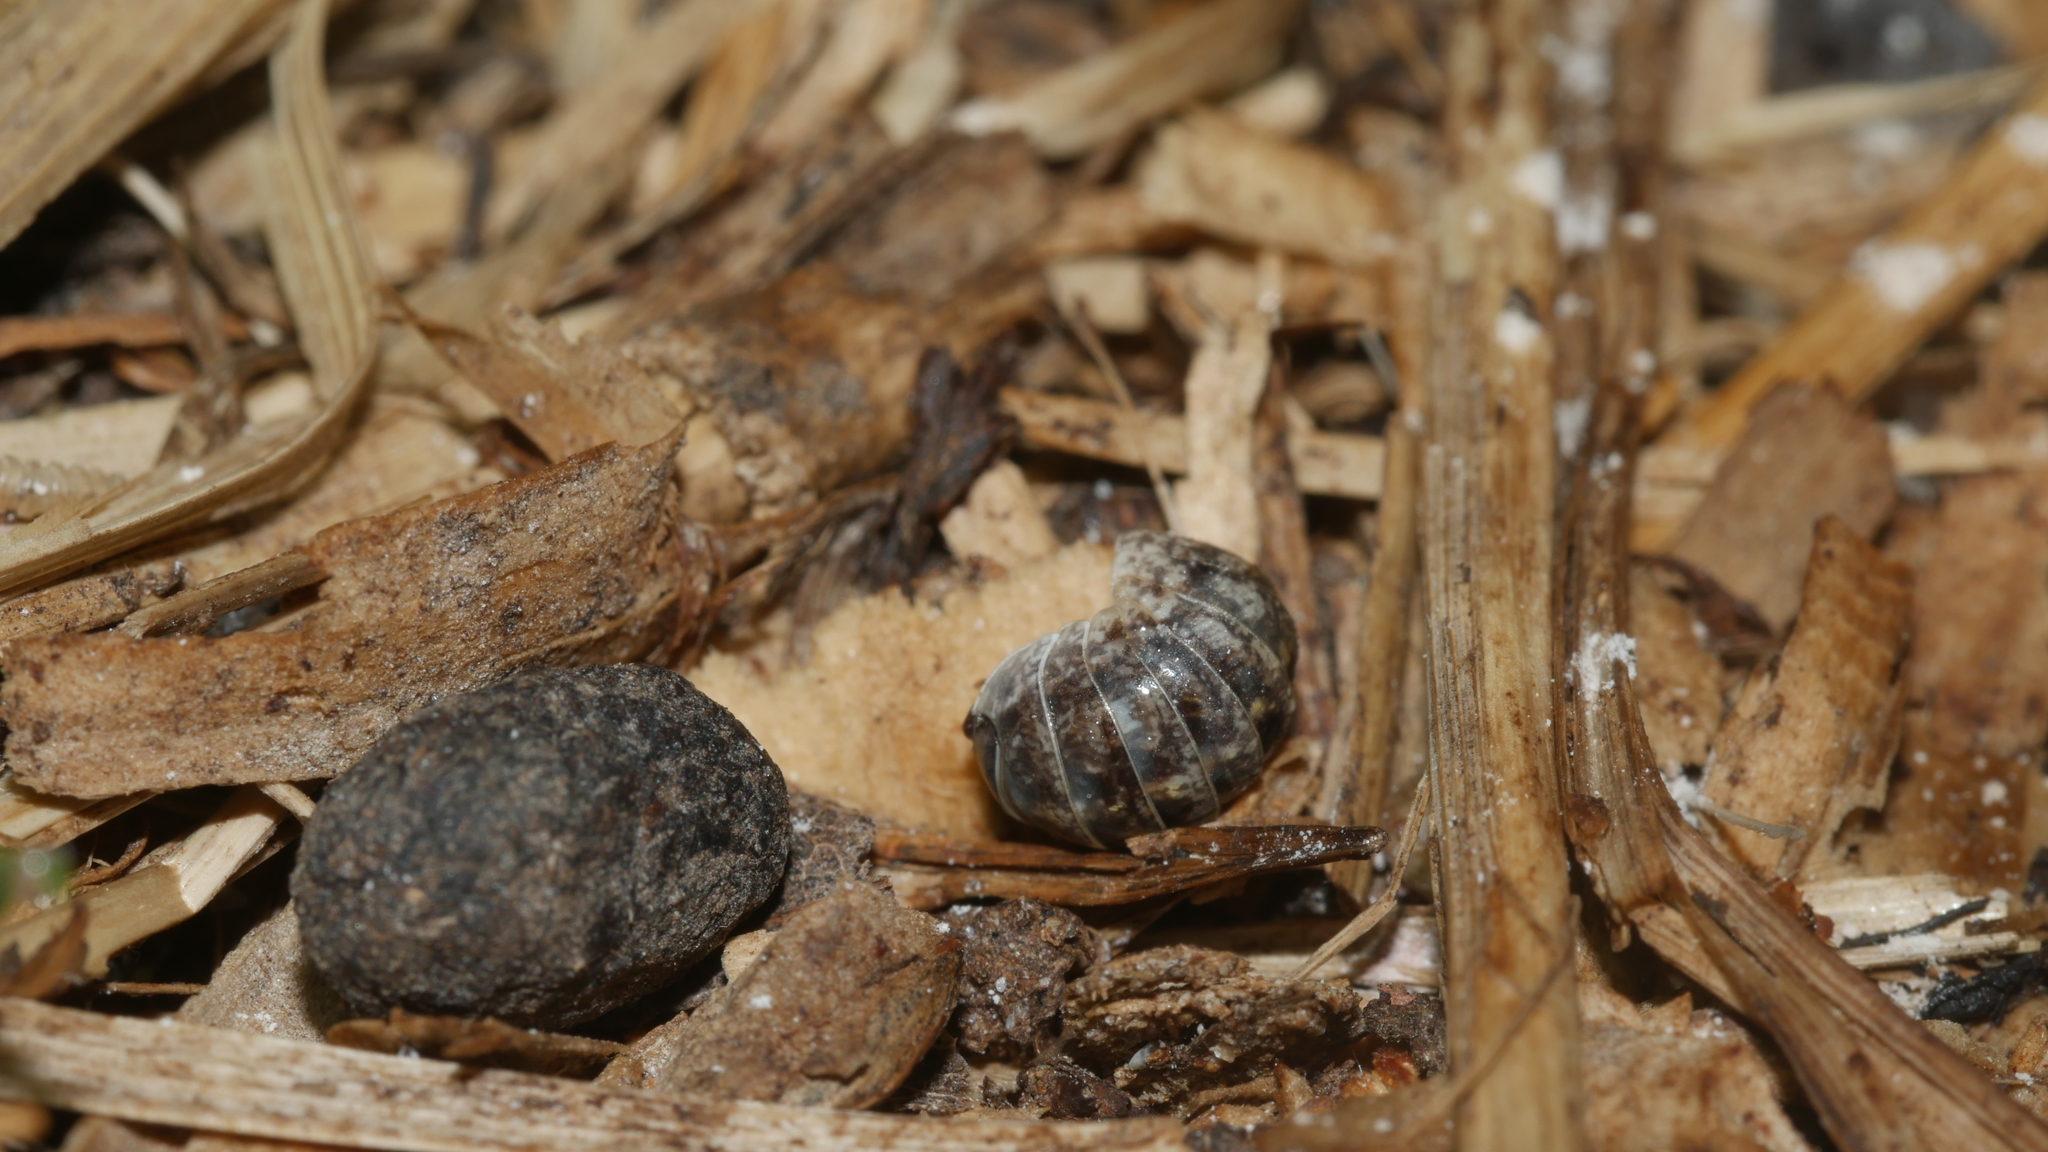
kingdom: Animalia
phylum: Arthropoda
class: Malacostraca
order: Isopoda
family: Armadillidiidae
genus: Armadillidium
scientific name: Armadillidium vulgare
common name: Common pill woodlouse
